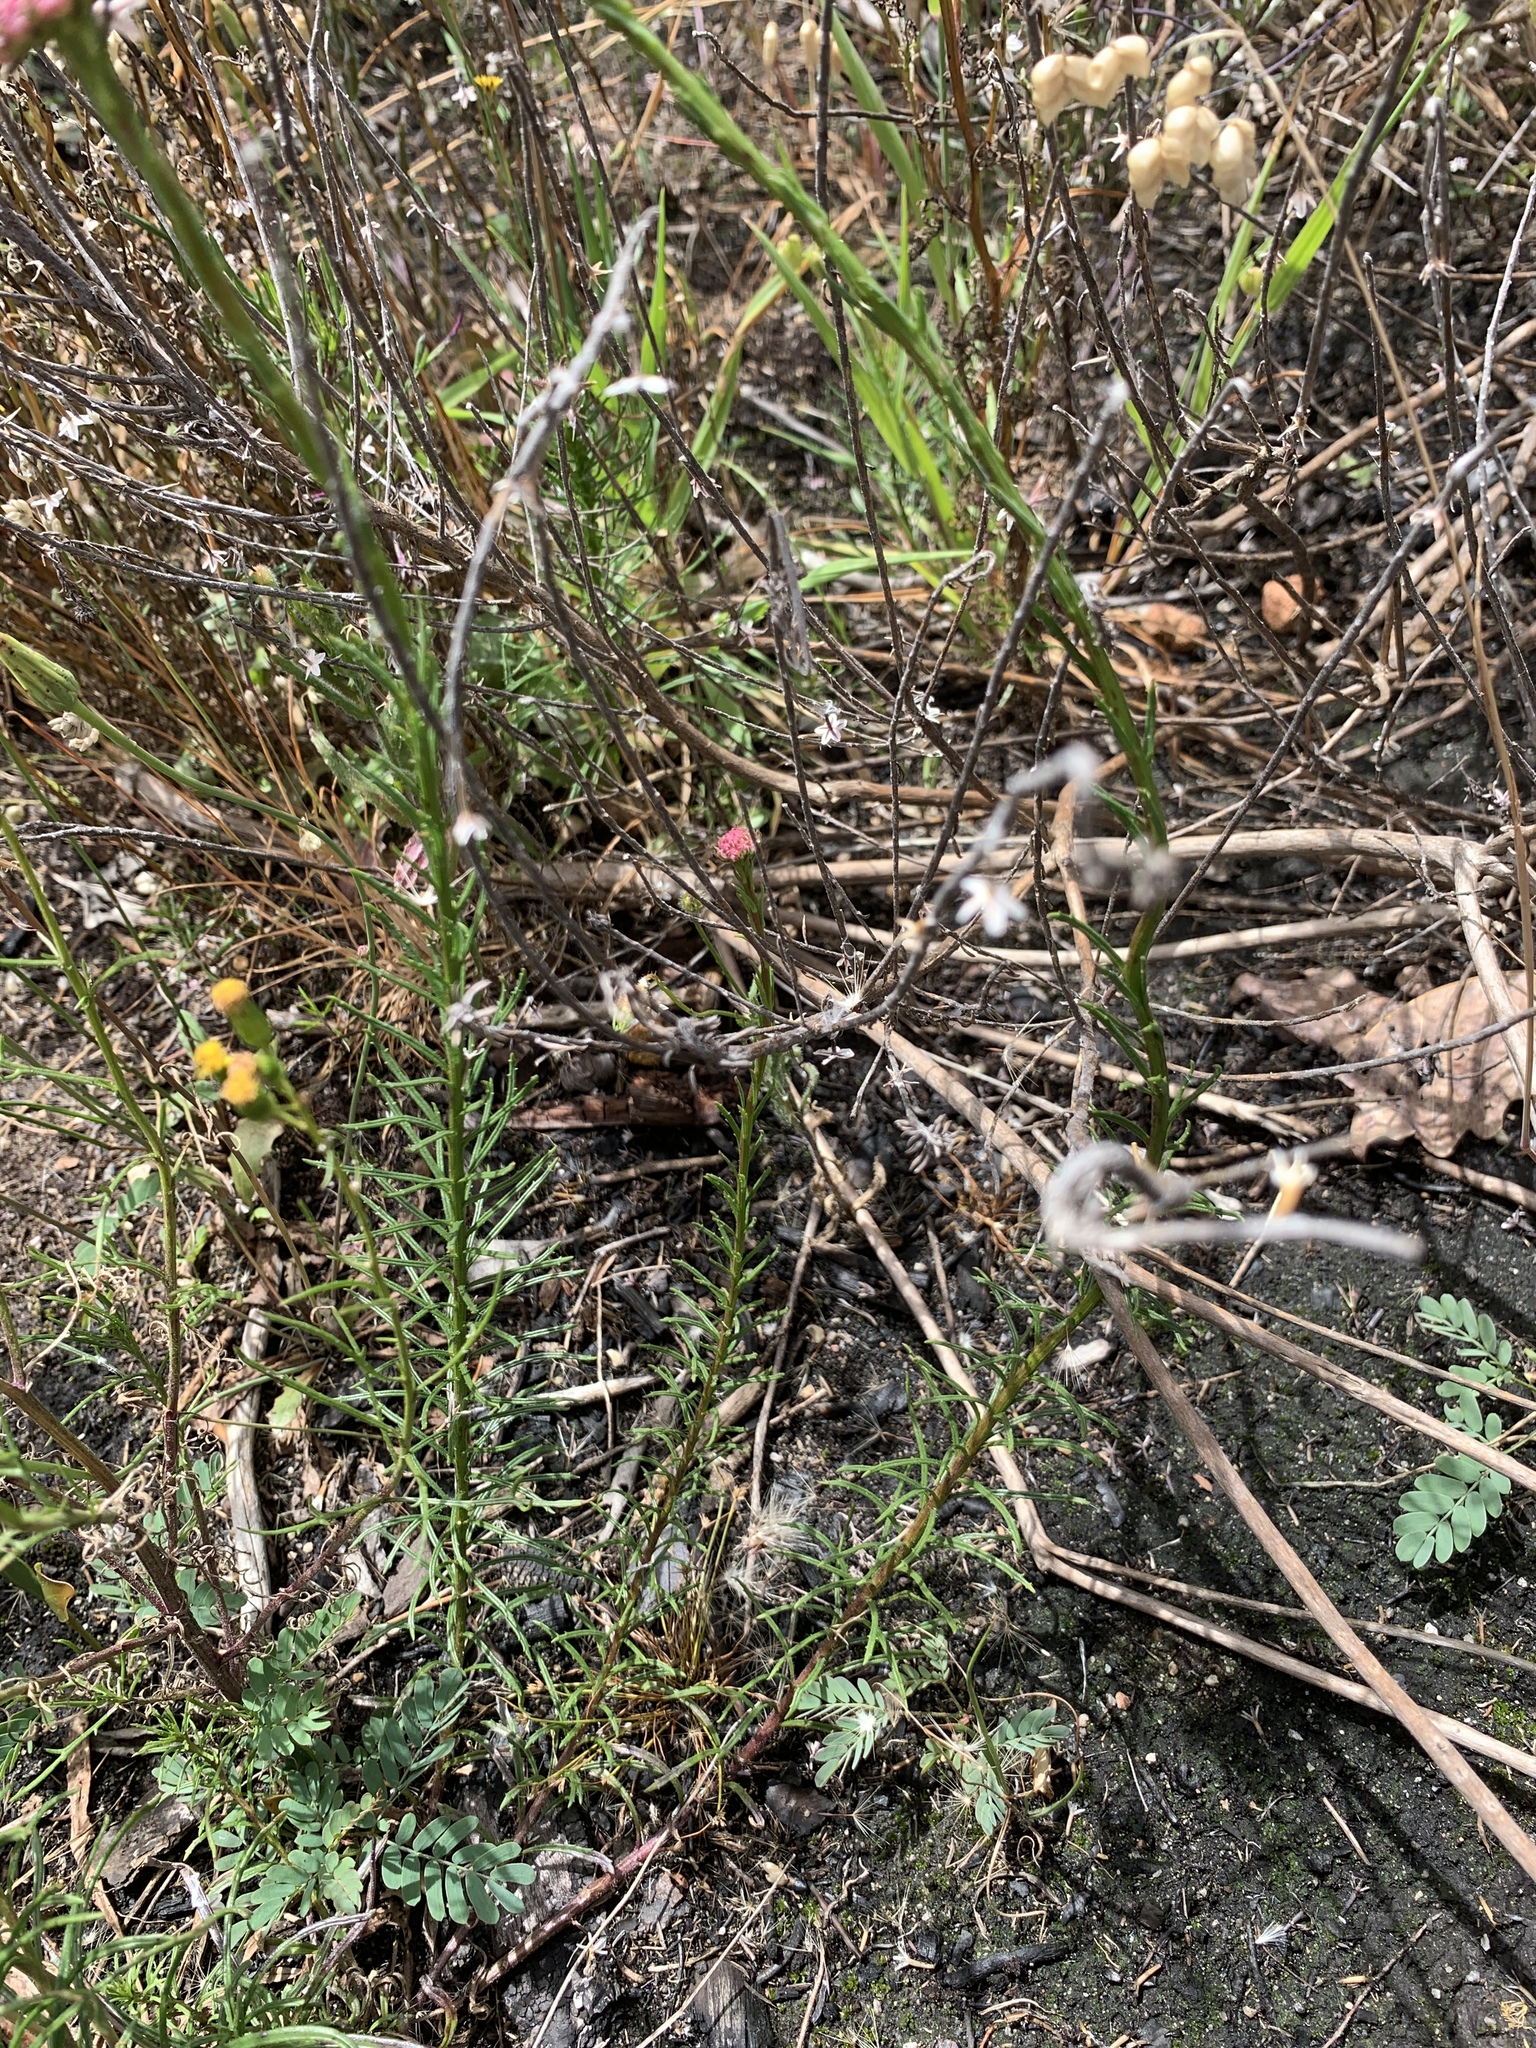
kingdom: Plantae
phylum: Tracheophyta
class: Magnoliopsida
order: Lamiales
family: Scrophulariaceae
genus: Pseudoselago
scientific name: Pseudoselago spuria
